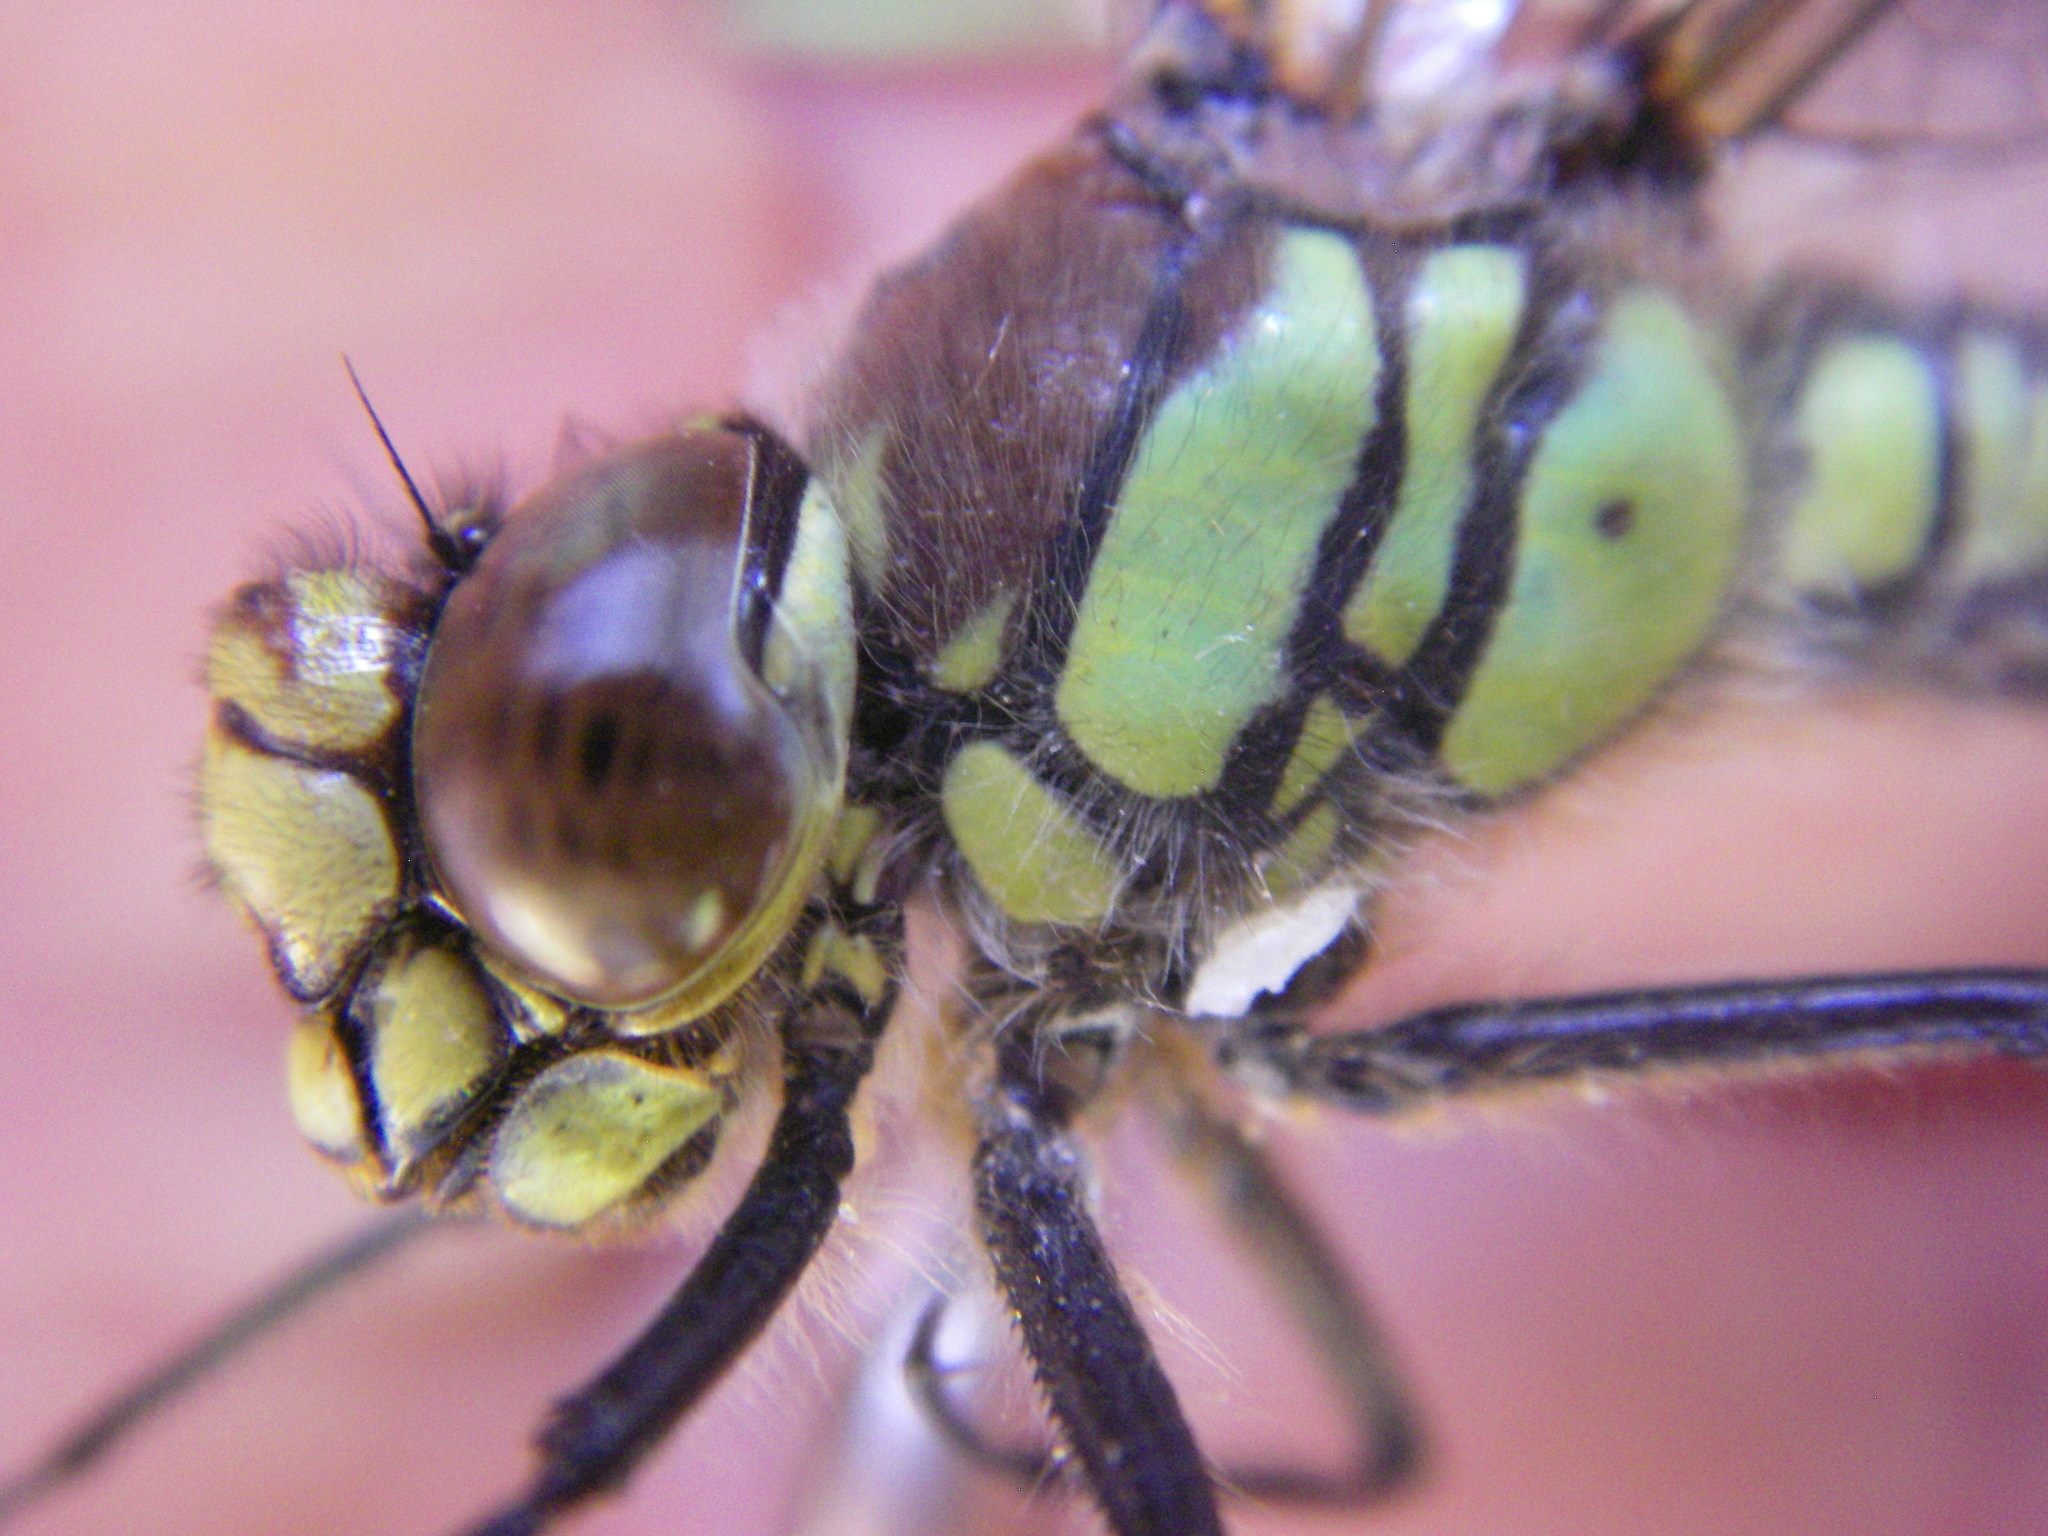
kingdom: Animalia
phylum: Arthropoda
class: Insecta
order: Odonata
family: Aeshnidae
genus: Brachytron
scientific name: Brachytron pratense
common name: Hairy hawker
